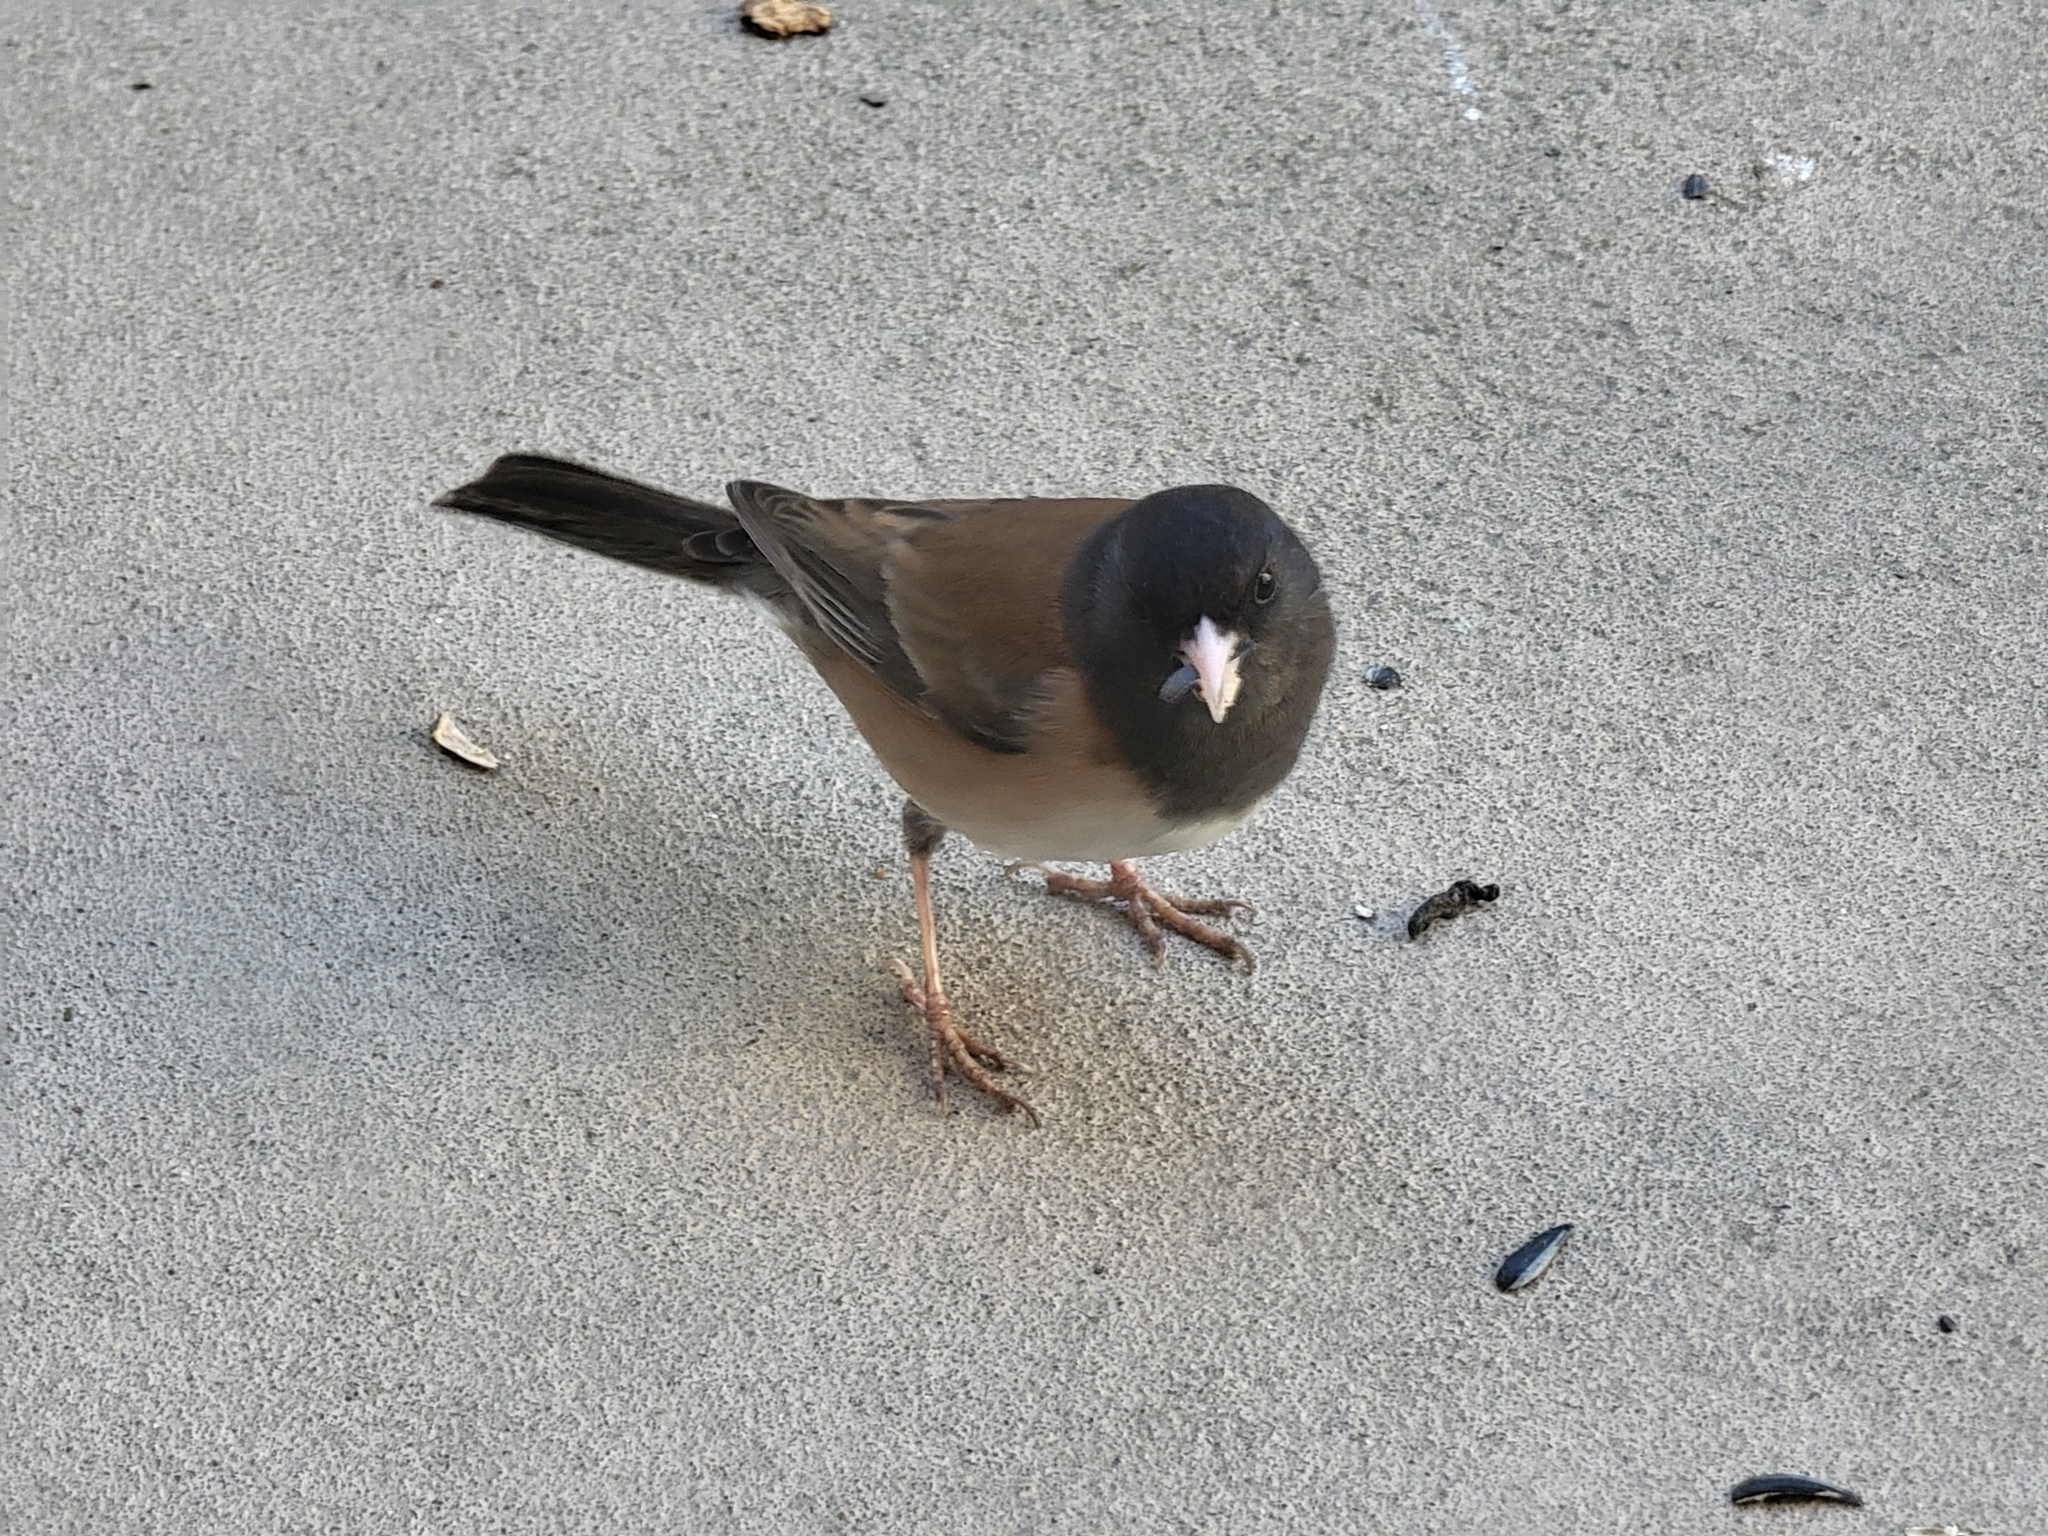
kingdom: Animalia
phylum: Chordata
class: Aves
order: Passeriformes
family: Passerellidae
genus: Junco
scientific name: Junco hyemalis
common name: Dark-eyed junco
